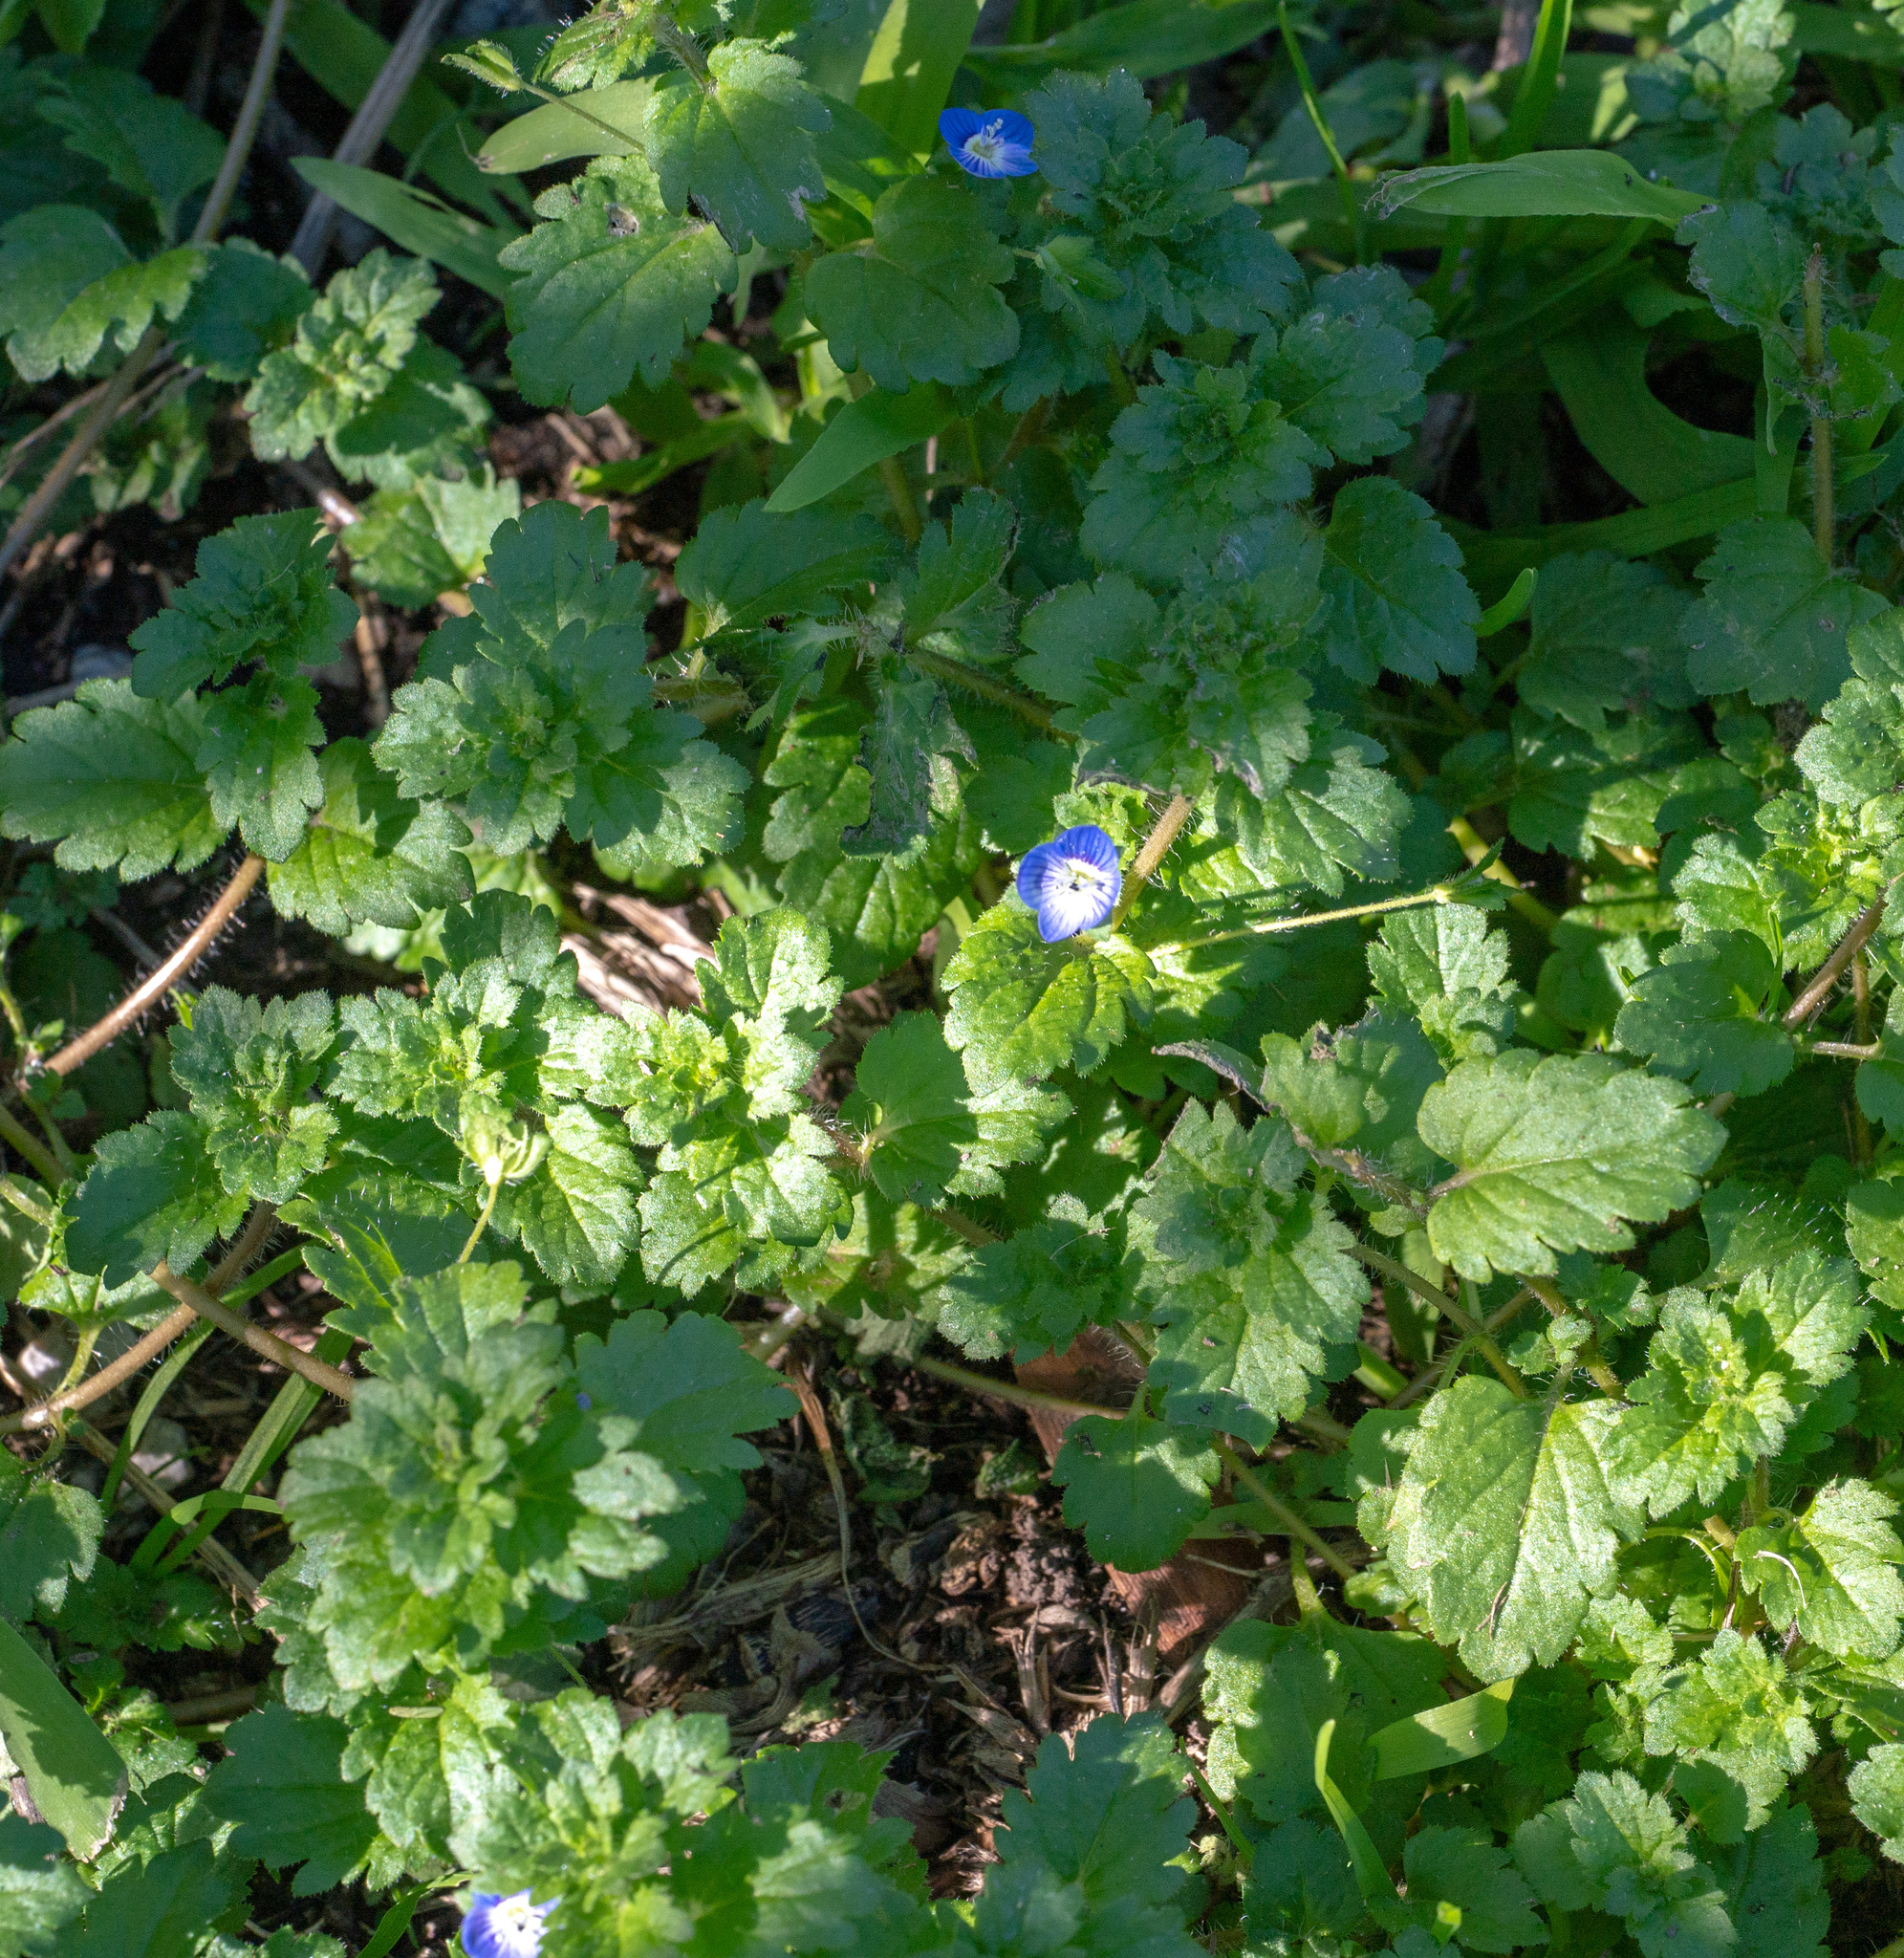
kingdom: Plantae
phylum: Tracheophyta
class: Magnoliopsida
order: Lamiales
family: Plantaginaceae
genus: Veronica
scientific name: Veronica persica
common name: Common field-speedwell
